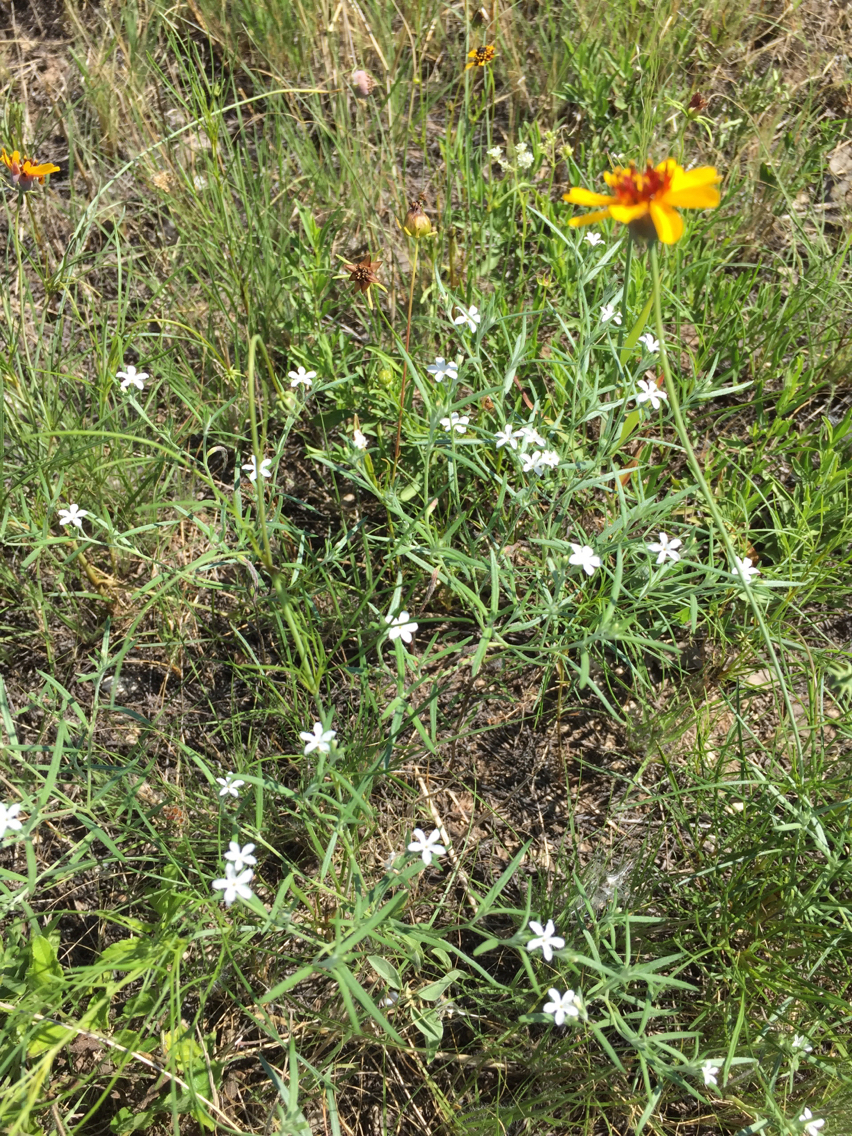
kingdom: Plantae
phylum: Tracheophyta
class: Magnoliopsida
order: Boraginales
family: Heliotropiaceae
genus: Euploca
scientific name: Euploca tenella
